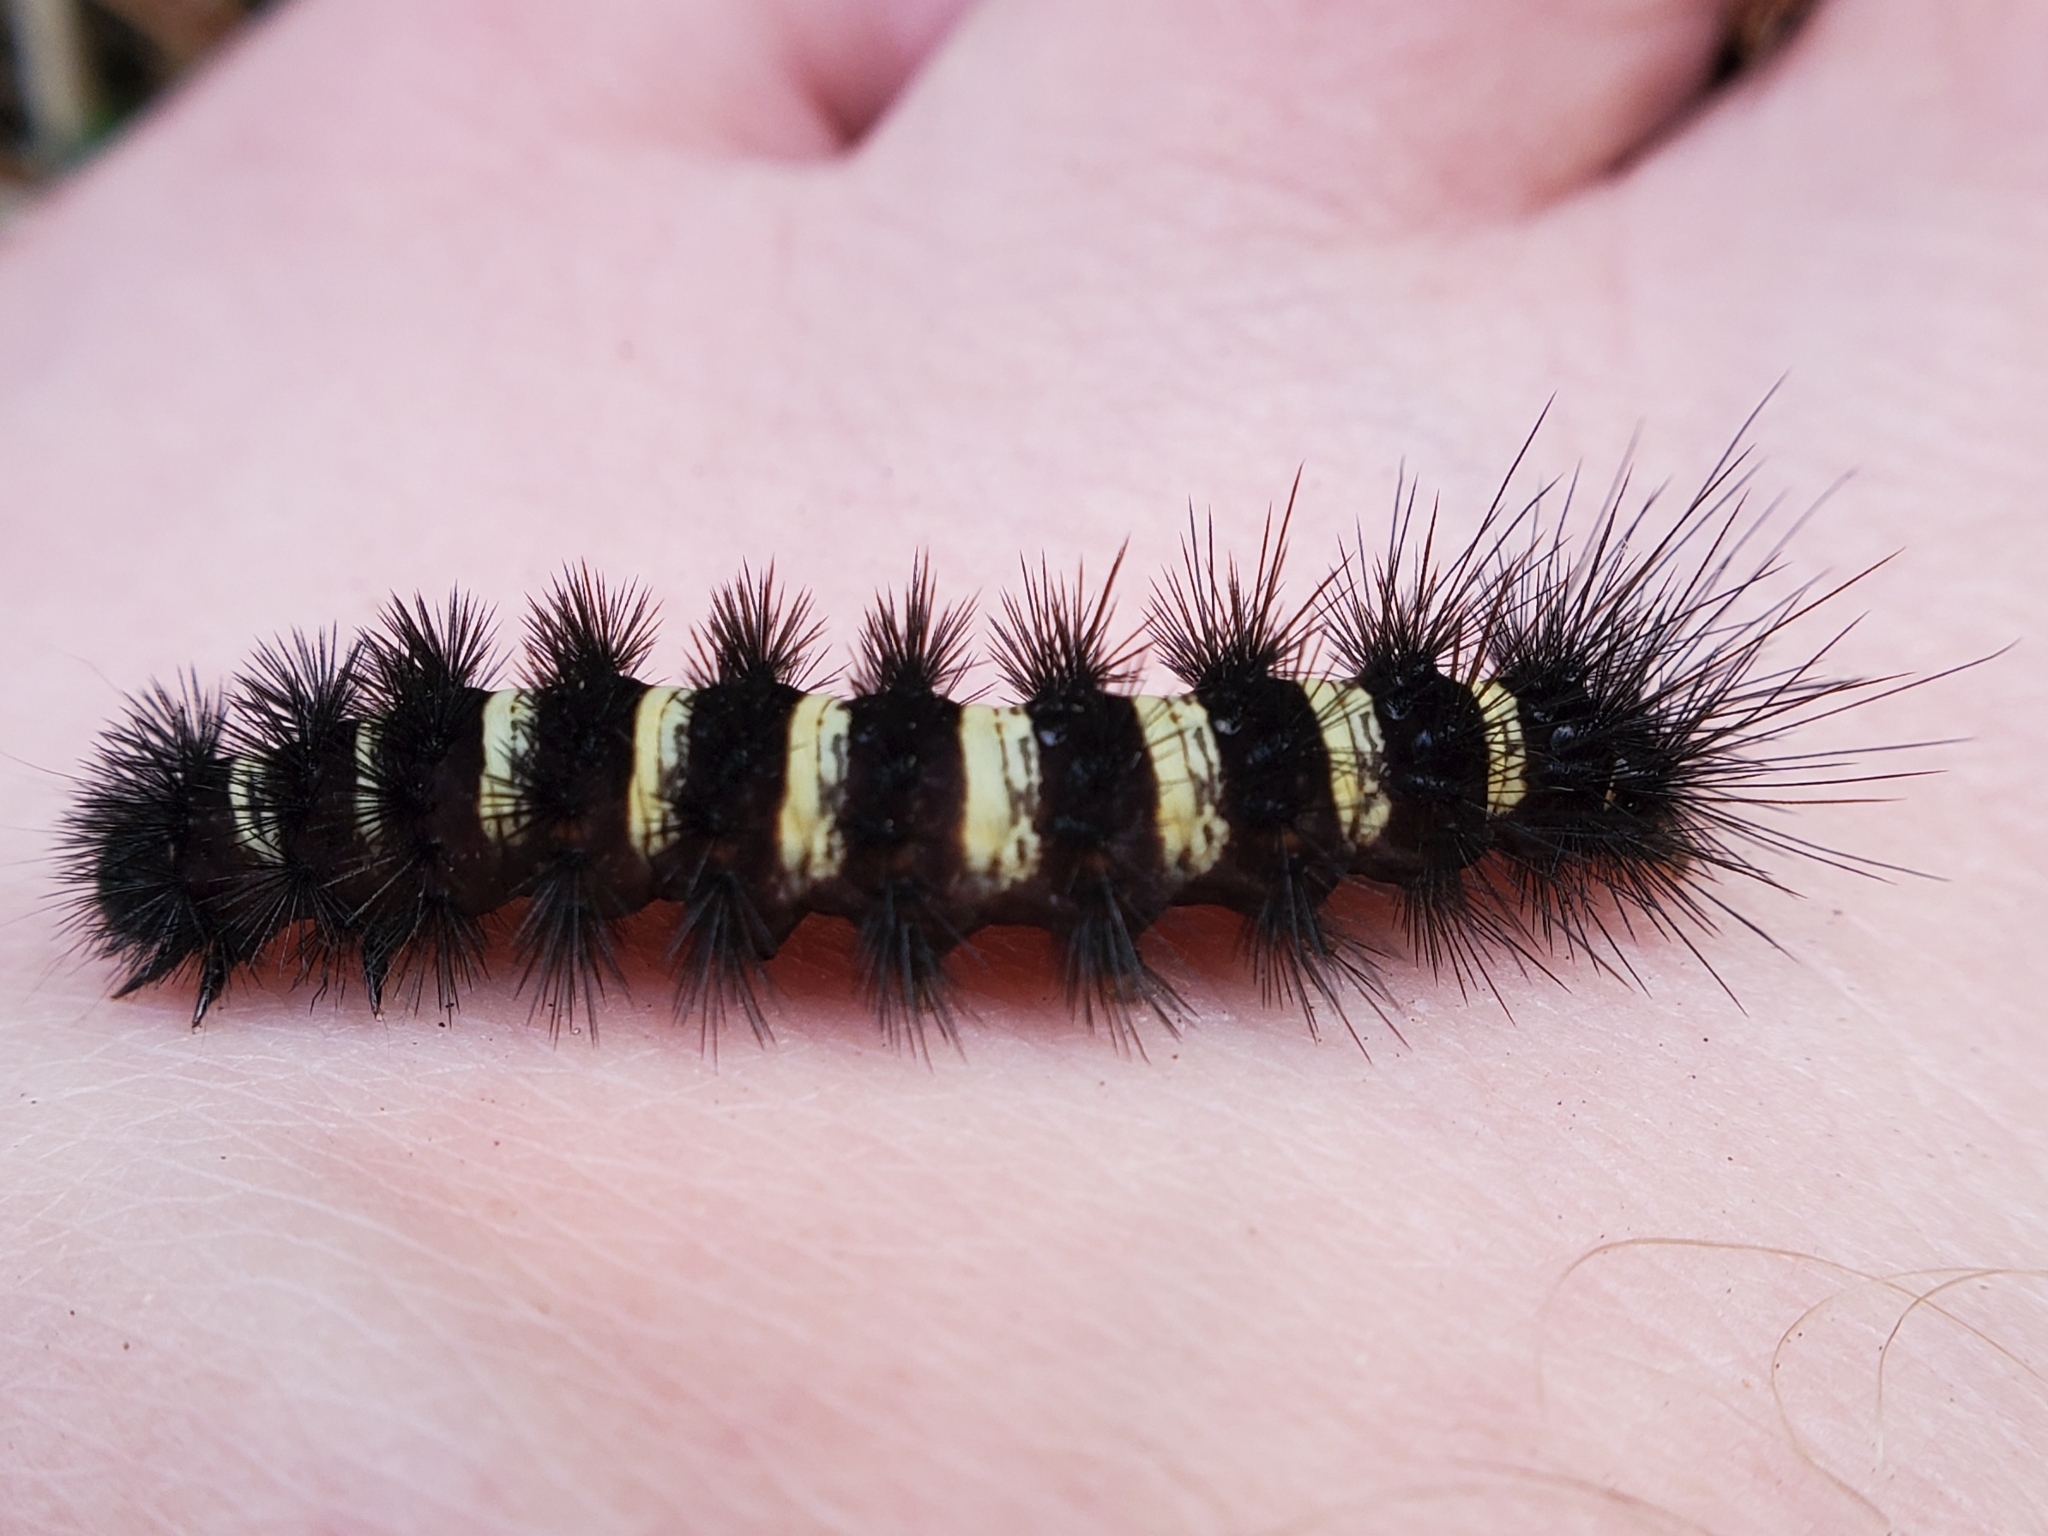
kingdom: Animalia
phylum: Arthropoda
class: Insecta
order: Lepidoptera
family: Erebidae
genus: Spilosoma
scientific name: Spilosoma congrua
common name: Agreeable tiger moth
